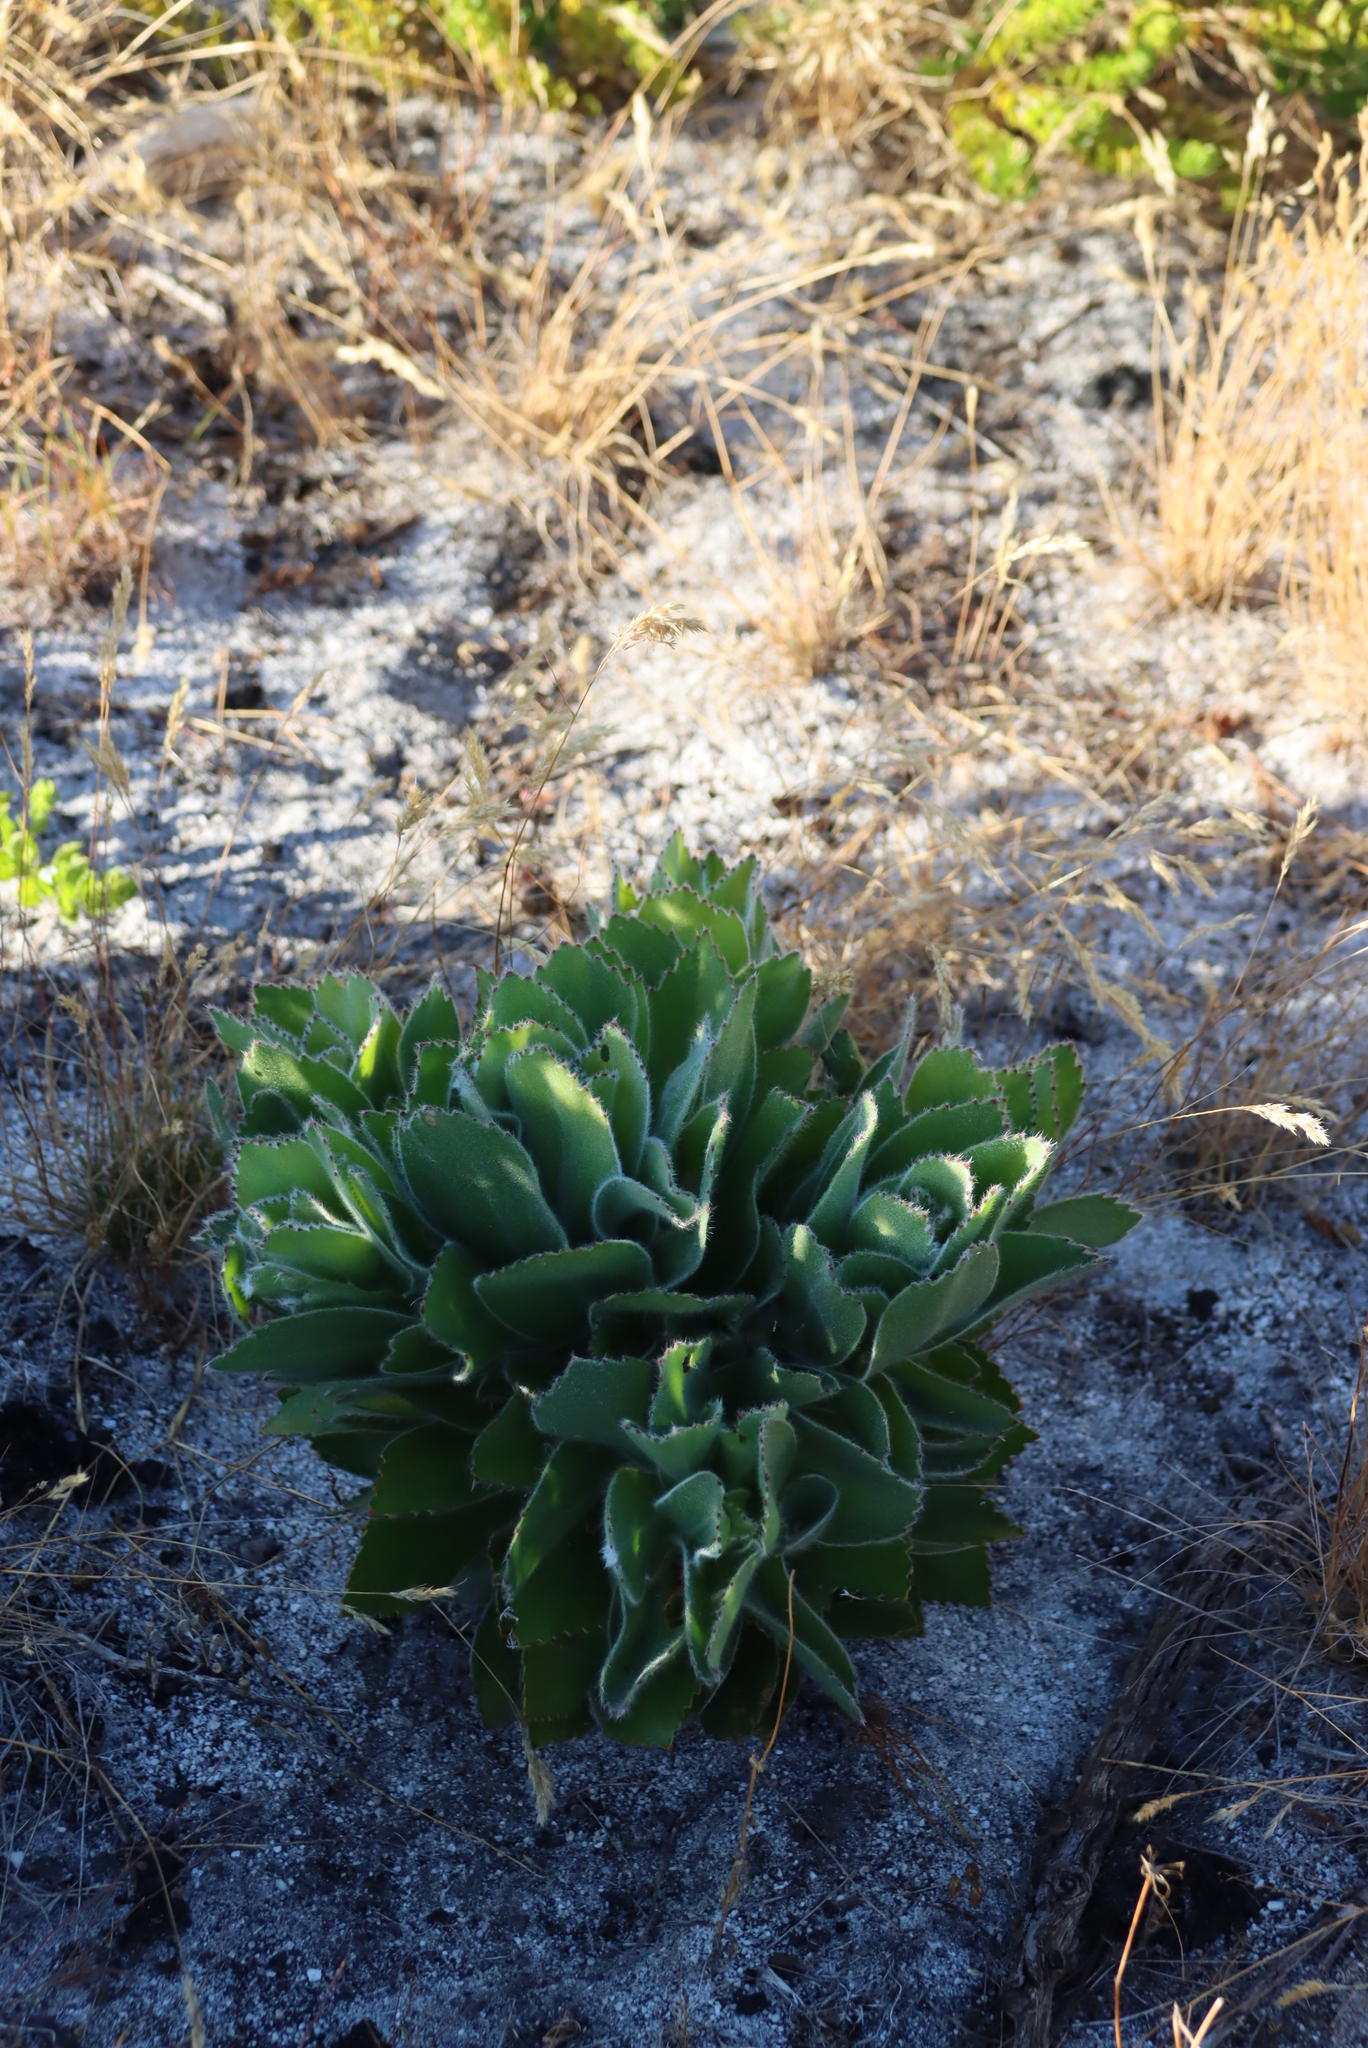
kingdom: Plantae
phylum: Tracheophyta
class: Magnoliopsida
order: Proteales
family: Proteaceae
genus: Leucospermum
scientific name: Leucospermum conocarpodendron
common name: Tree pincushion
